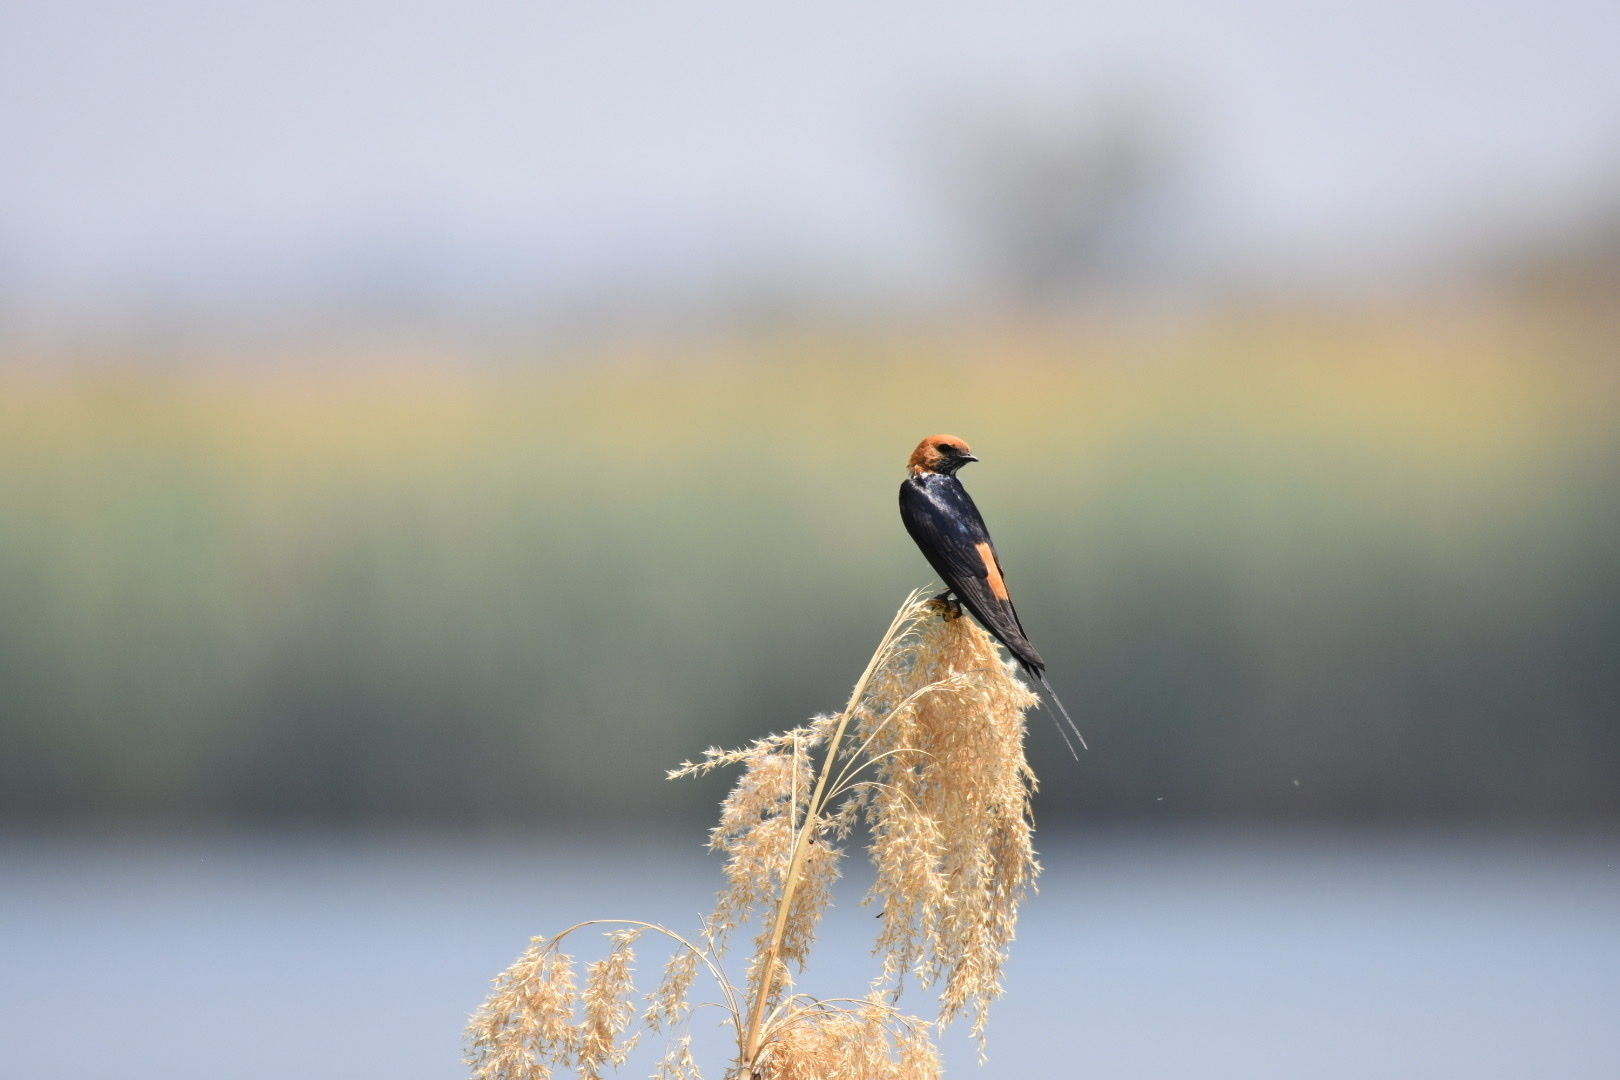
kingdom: Animalia
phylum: Chordata
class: Aves
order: Passeriformes
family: Hirundinidae
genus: Cecropis
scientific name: Cecropis abyssinica
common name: Lesser striped-swallow
